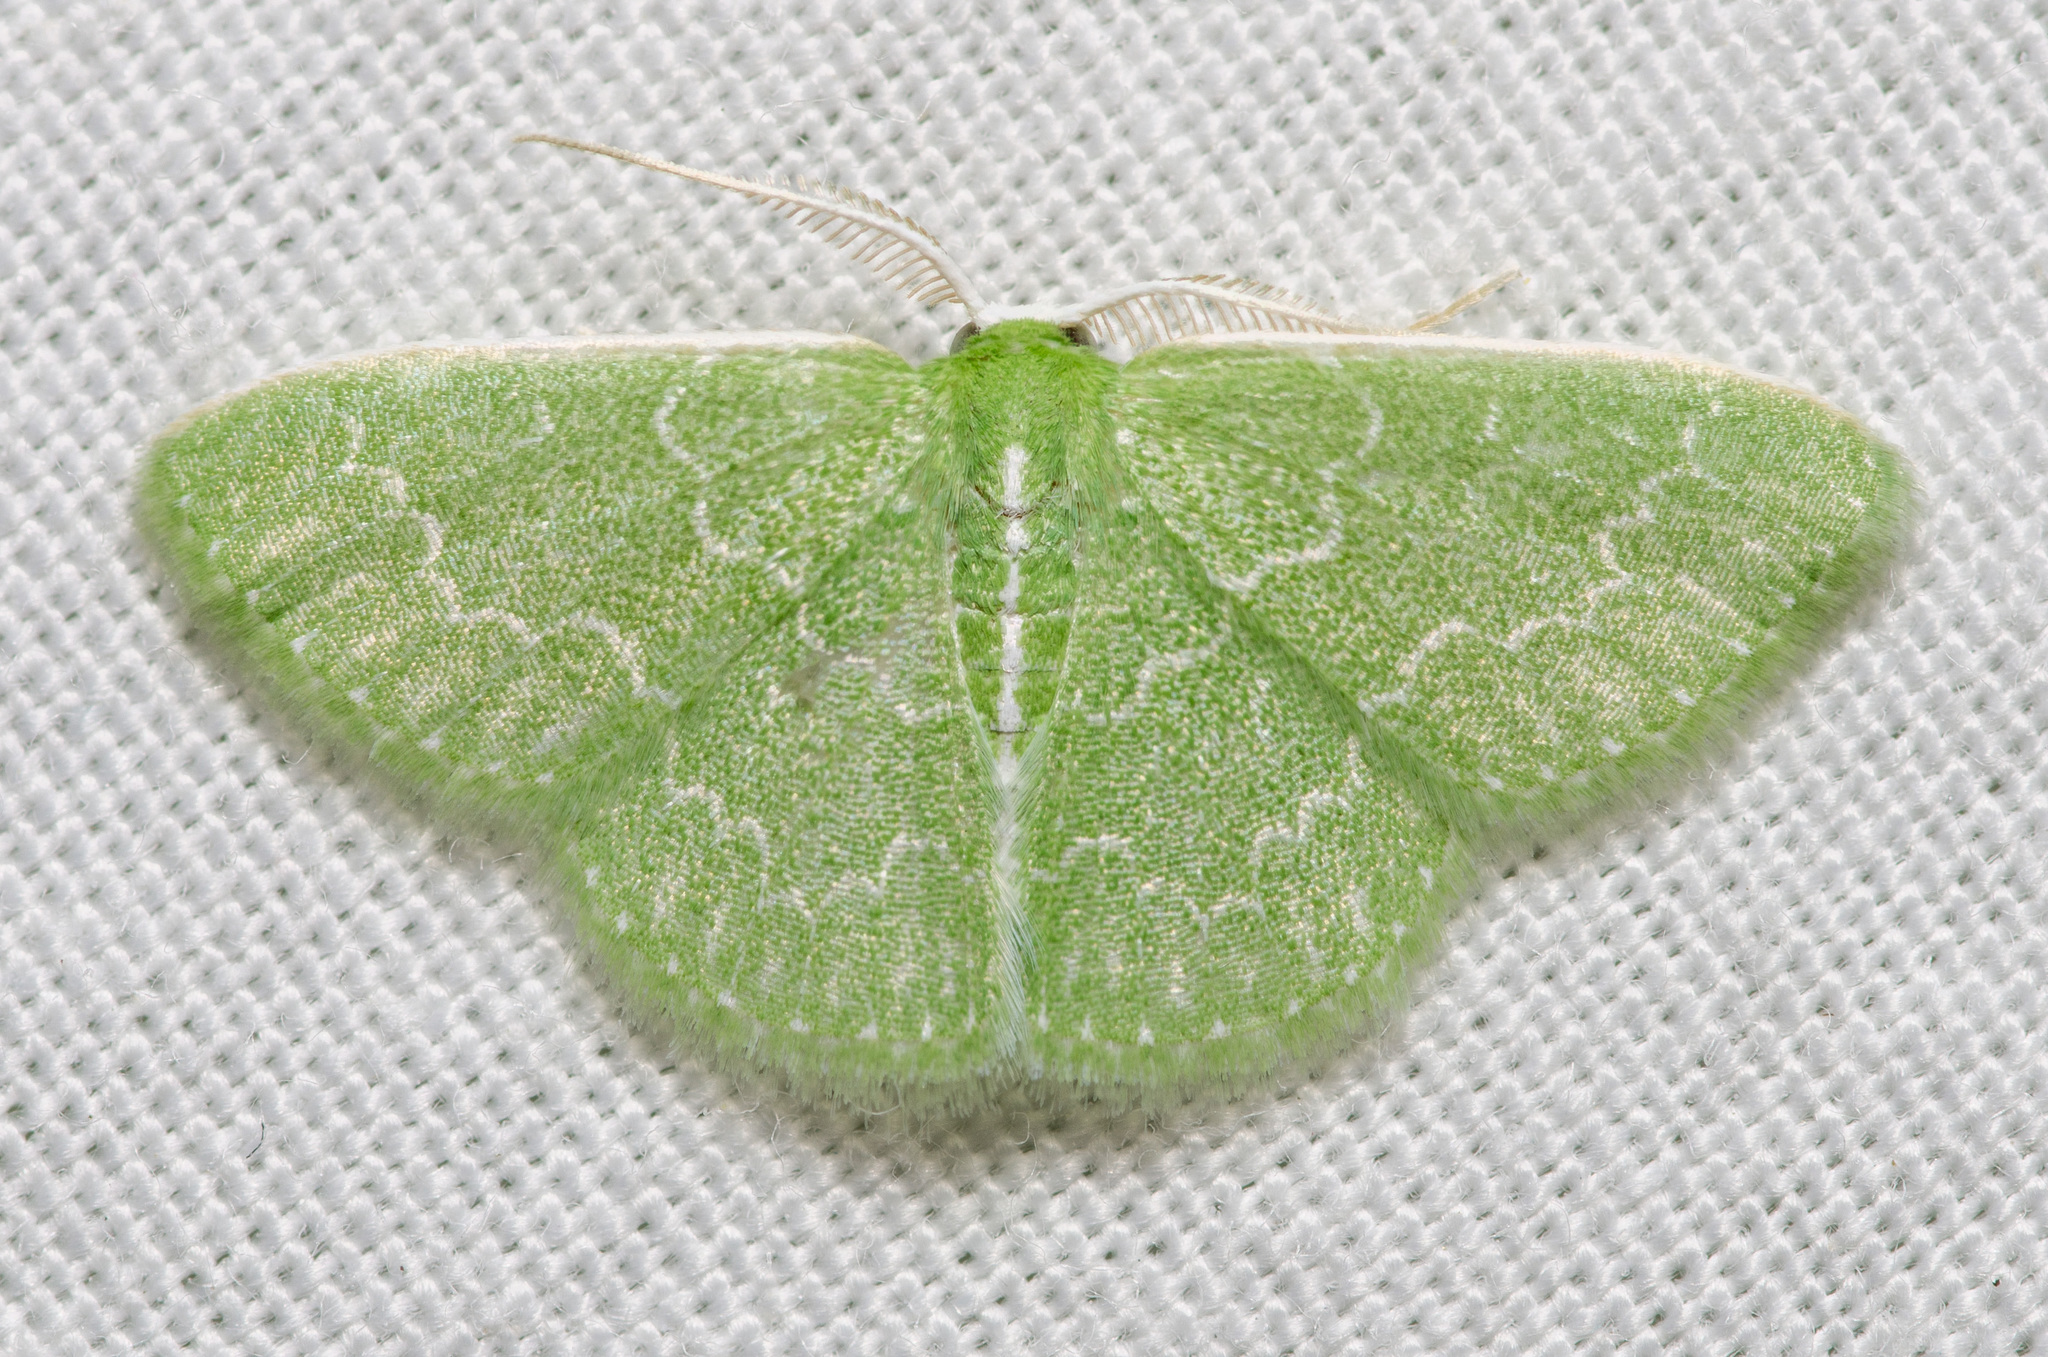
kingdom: Animalia
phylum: Arthropoda
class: Insecta
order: Lepidoptera
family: Geometridae
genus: Synchlora
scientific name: Synchlora frondaria
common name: Southern emerald
